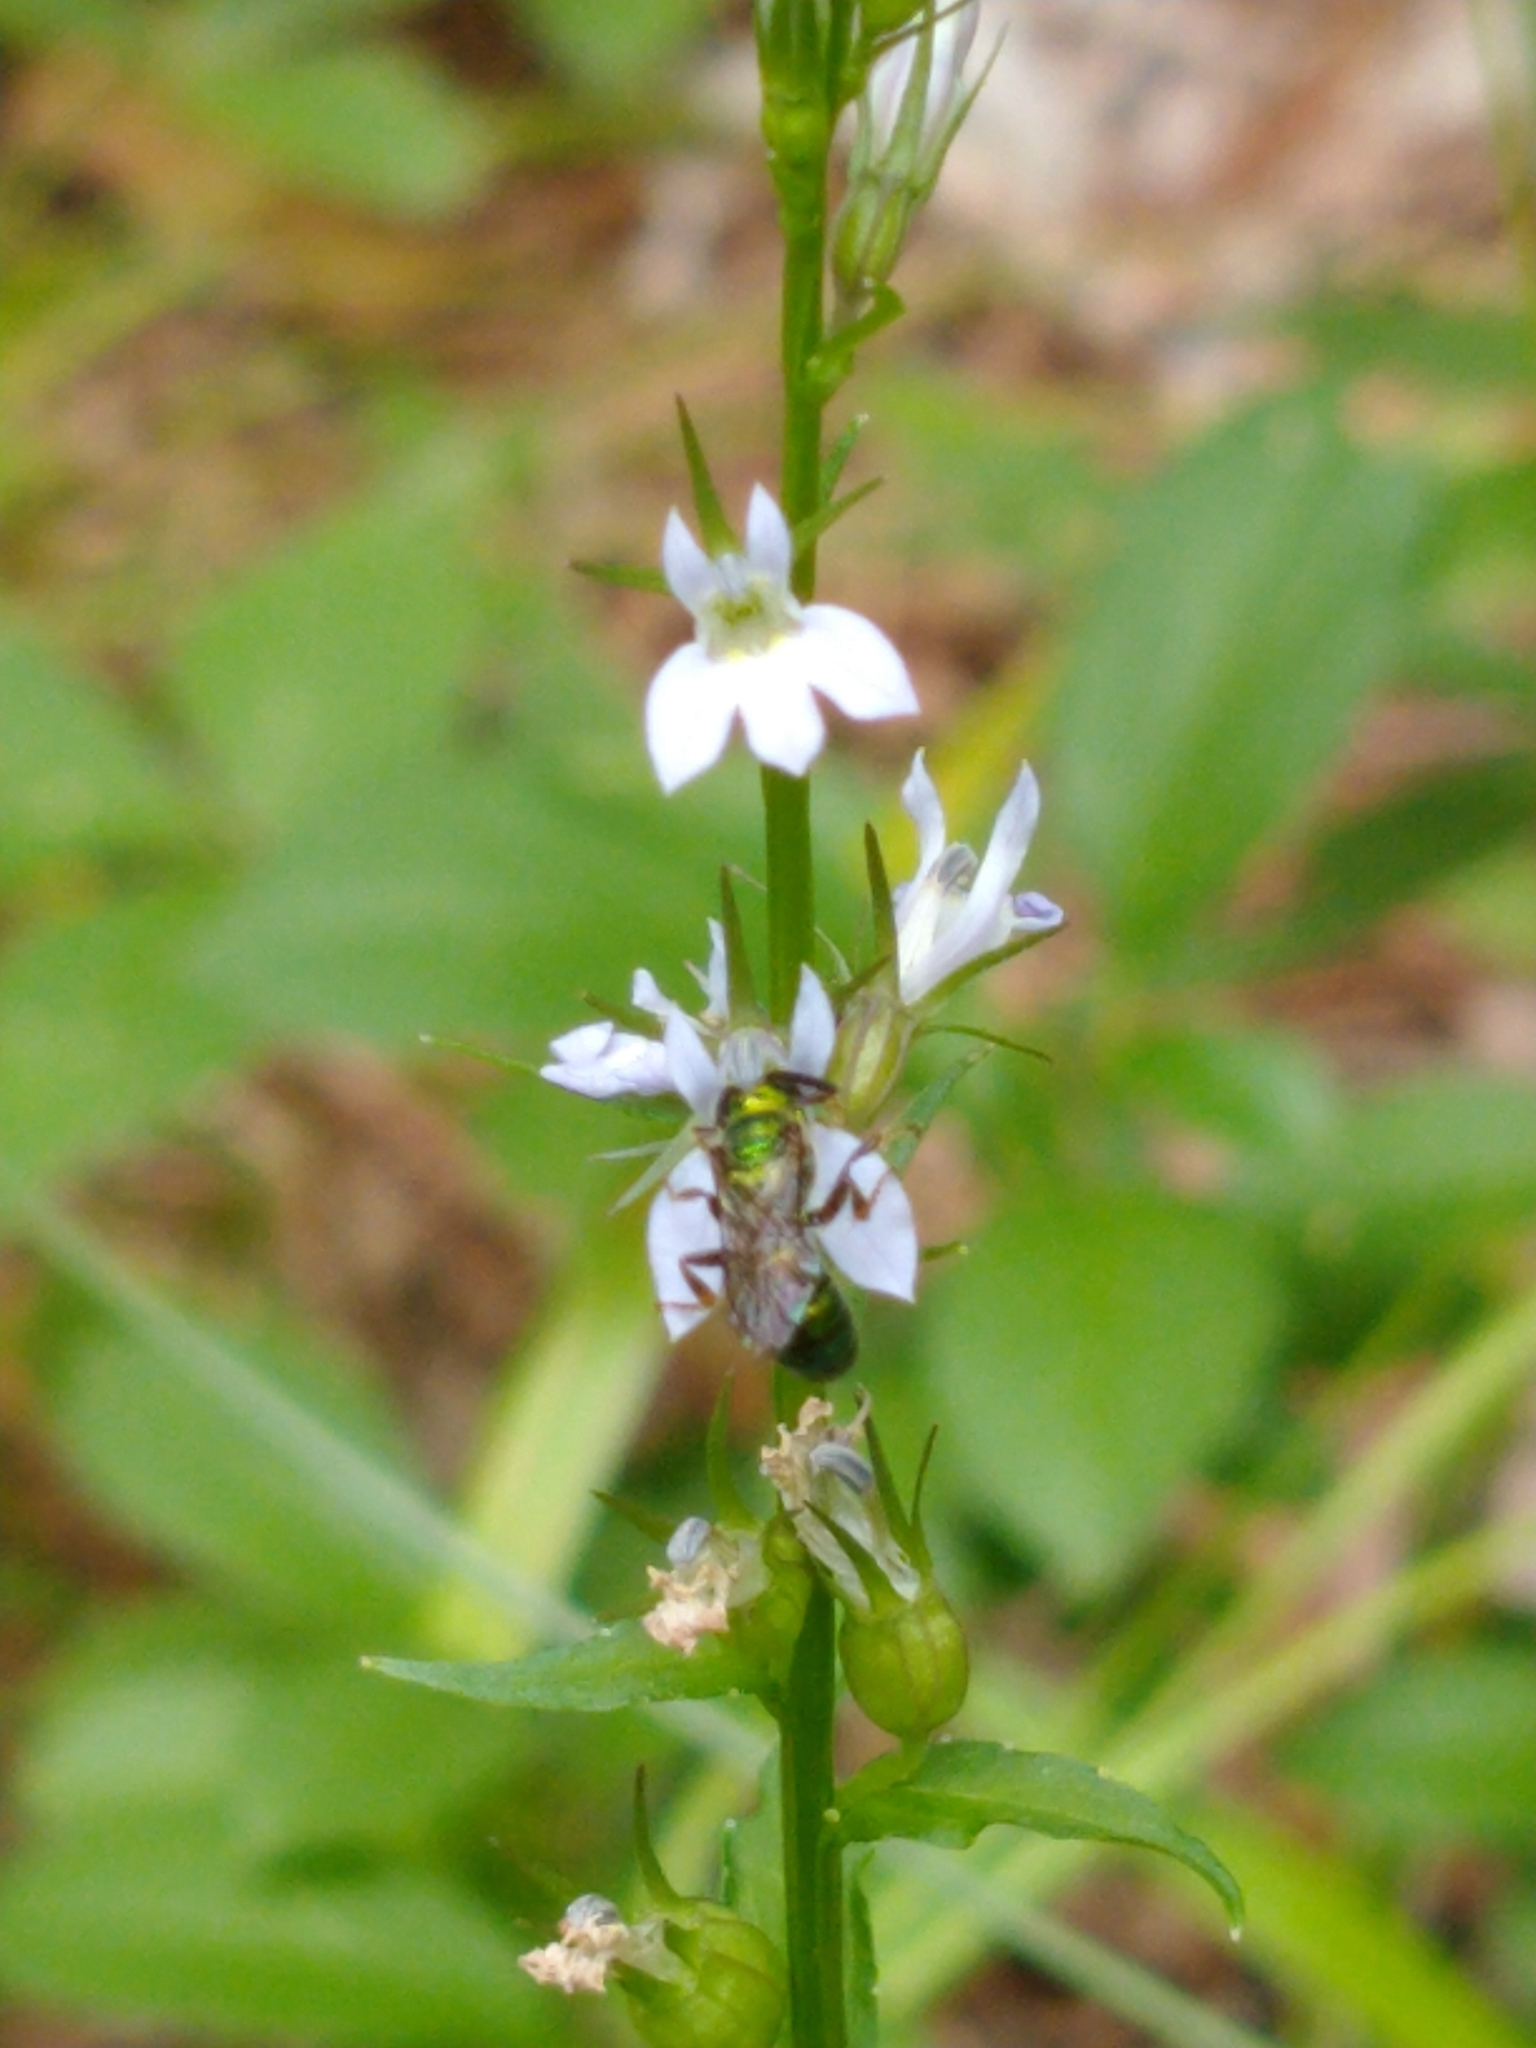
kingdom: Plantae
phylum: Tracheophyta
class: Magnoliopsida
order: Asterales
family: Campanulaceae
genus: Lobelia
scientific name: Lobelia inflata
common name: Indian tobacco
